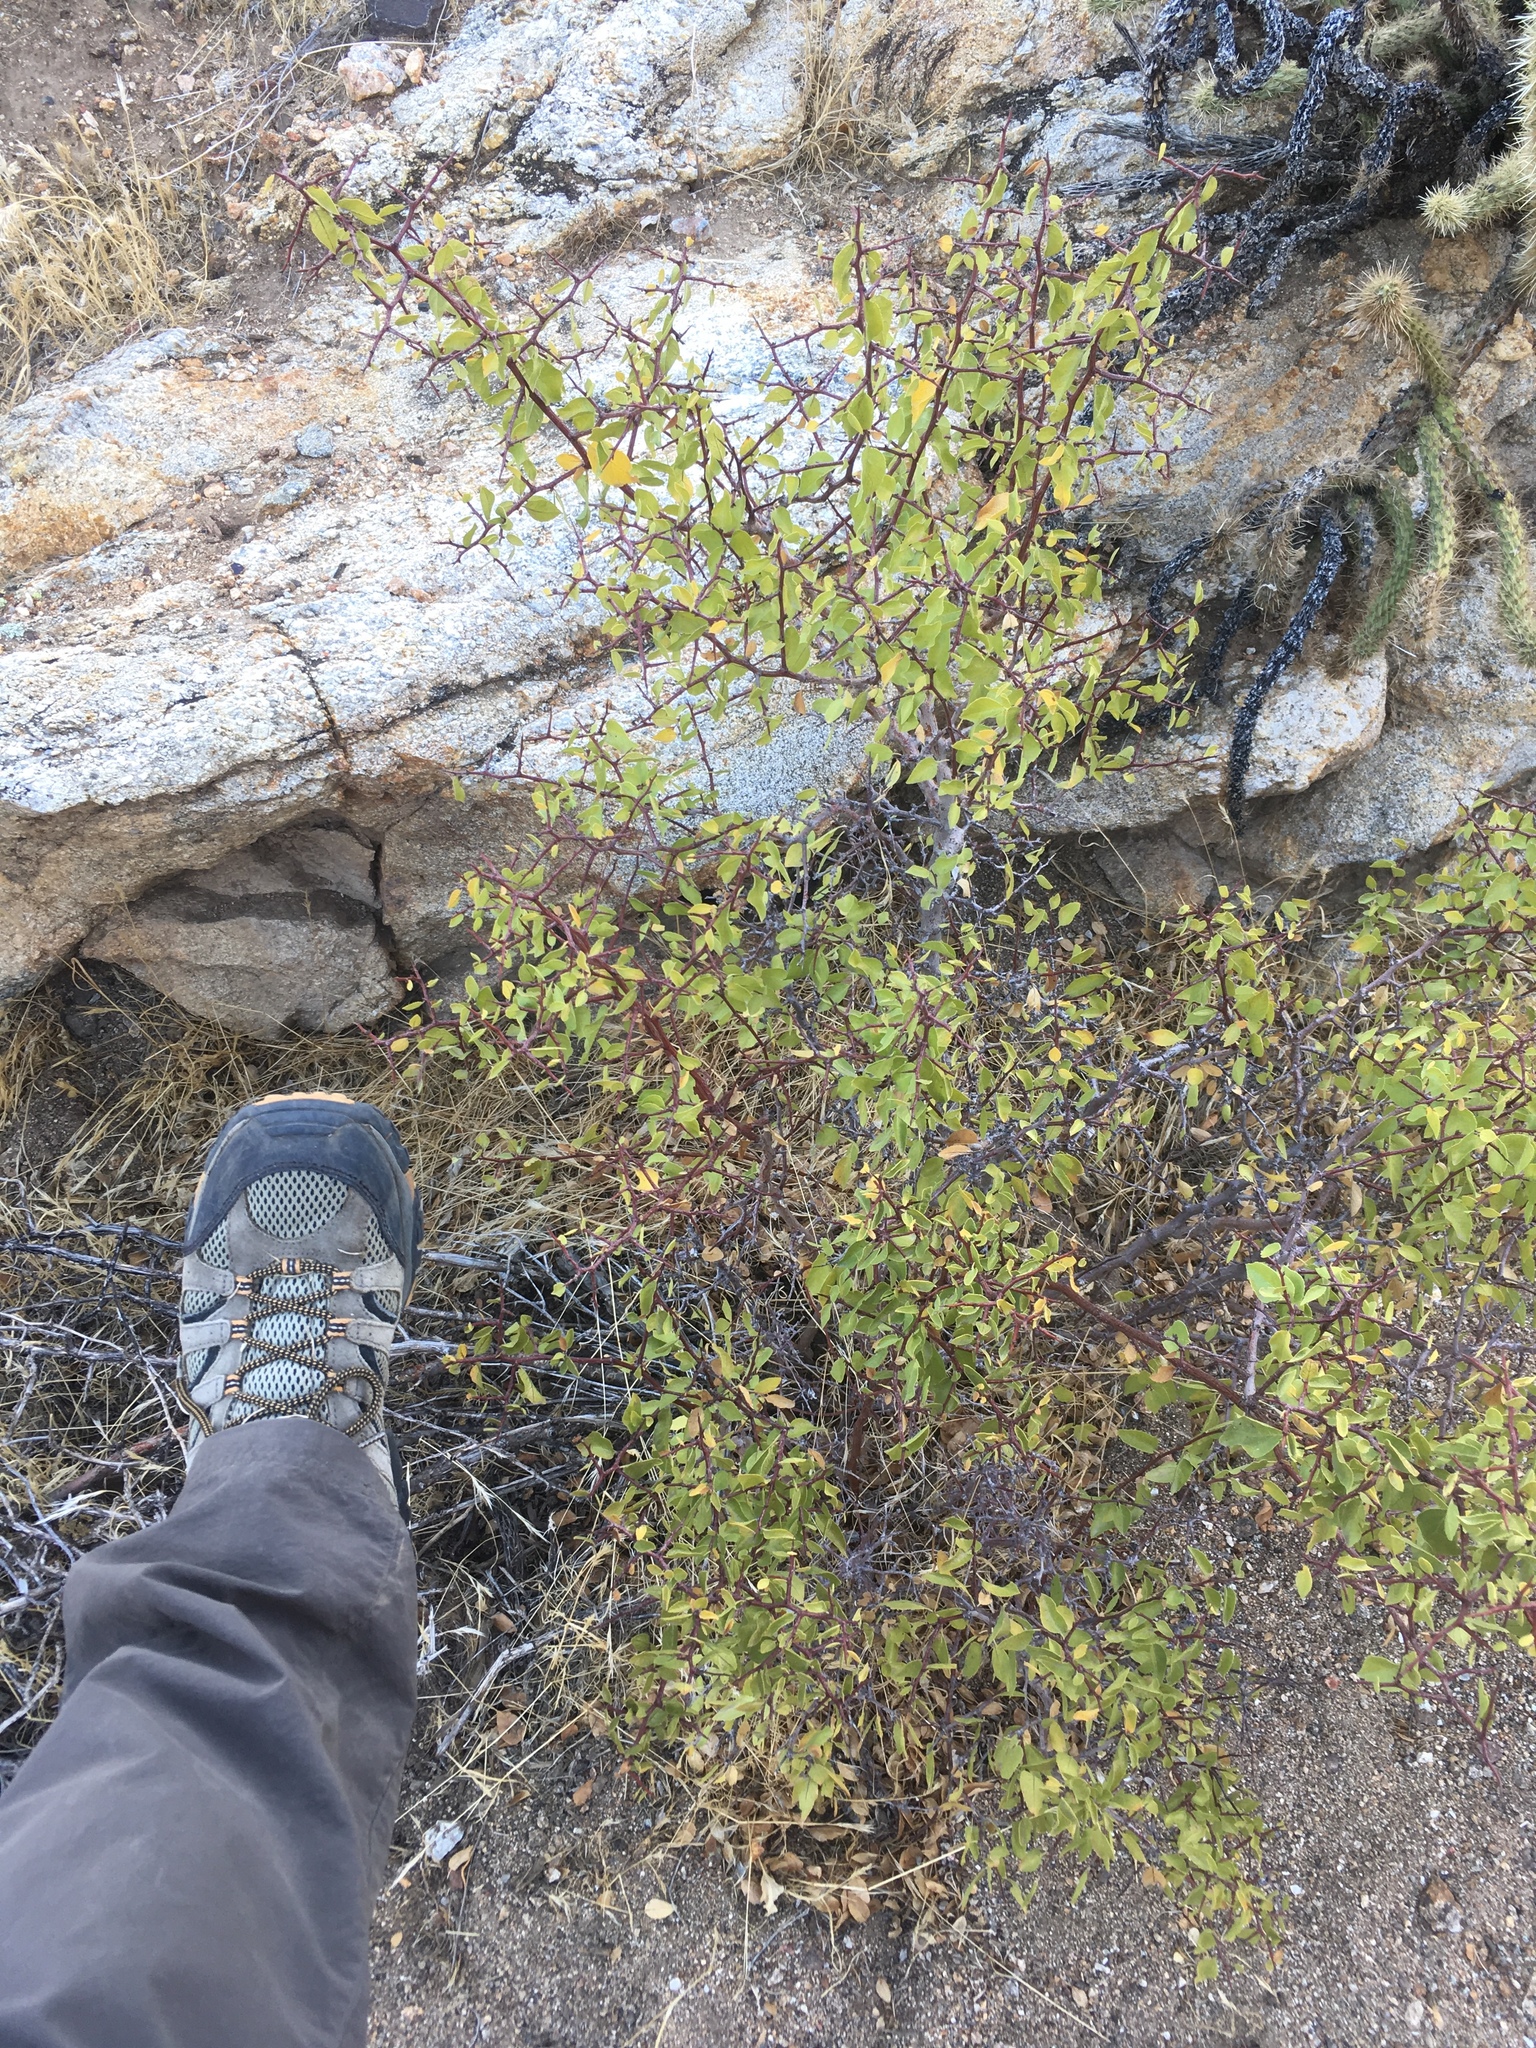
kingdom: Plantae
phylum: Tracheophyta
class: Magnoliopsida
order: Rosales
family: Rosaceae
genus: Prunus
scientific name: Prunus fremontii
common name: Desert apricot
